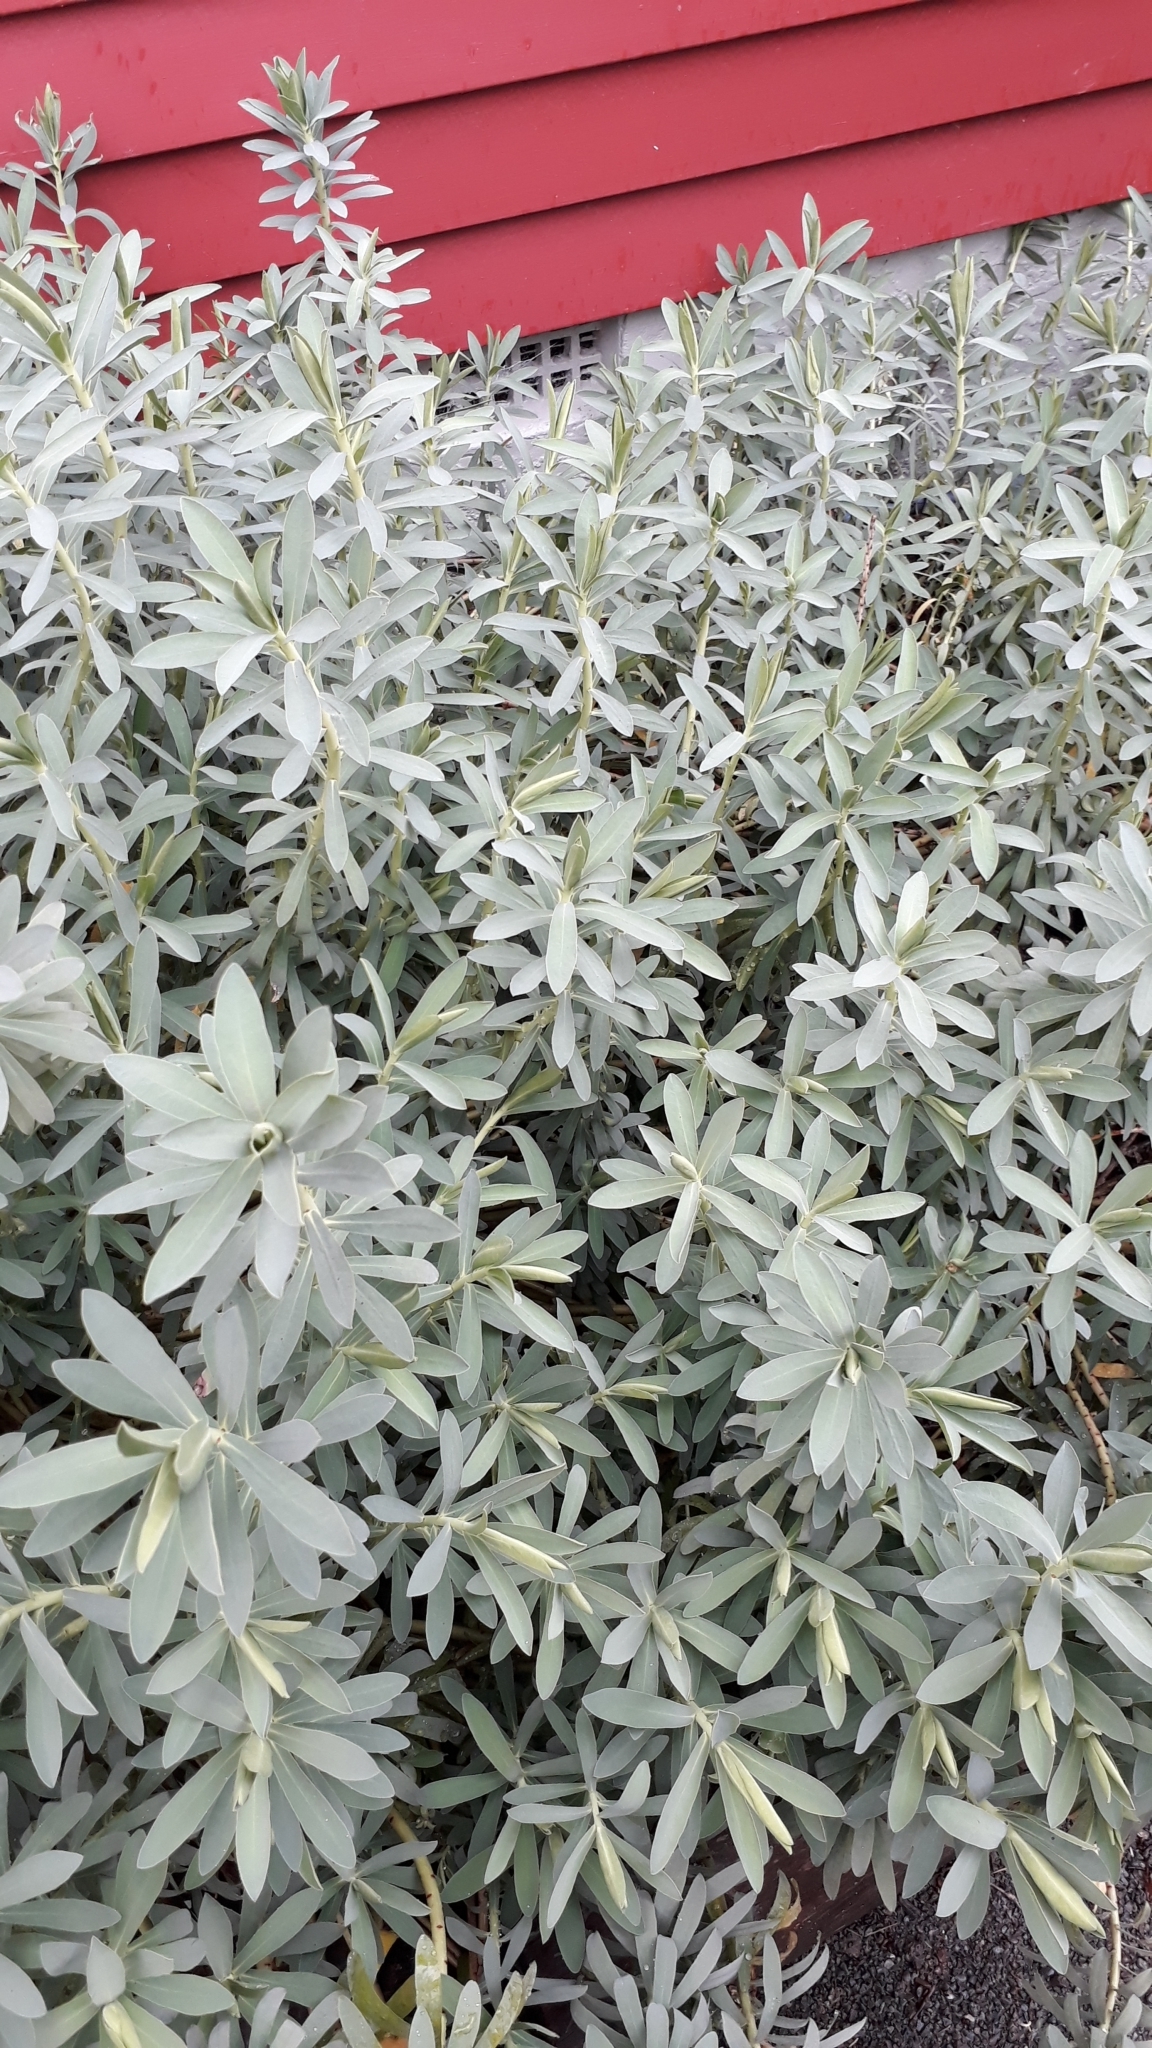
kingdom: Plantae
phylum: Tracheophyta
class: Magnoliopsida
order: Malpighiales
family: Euphorbiaceae
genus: Euphorbia
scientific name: Euphorbia glauca
